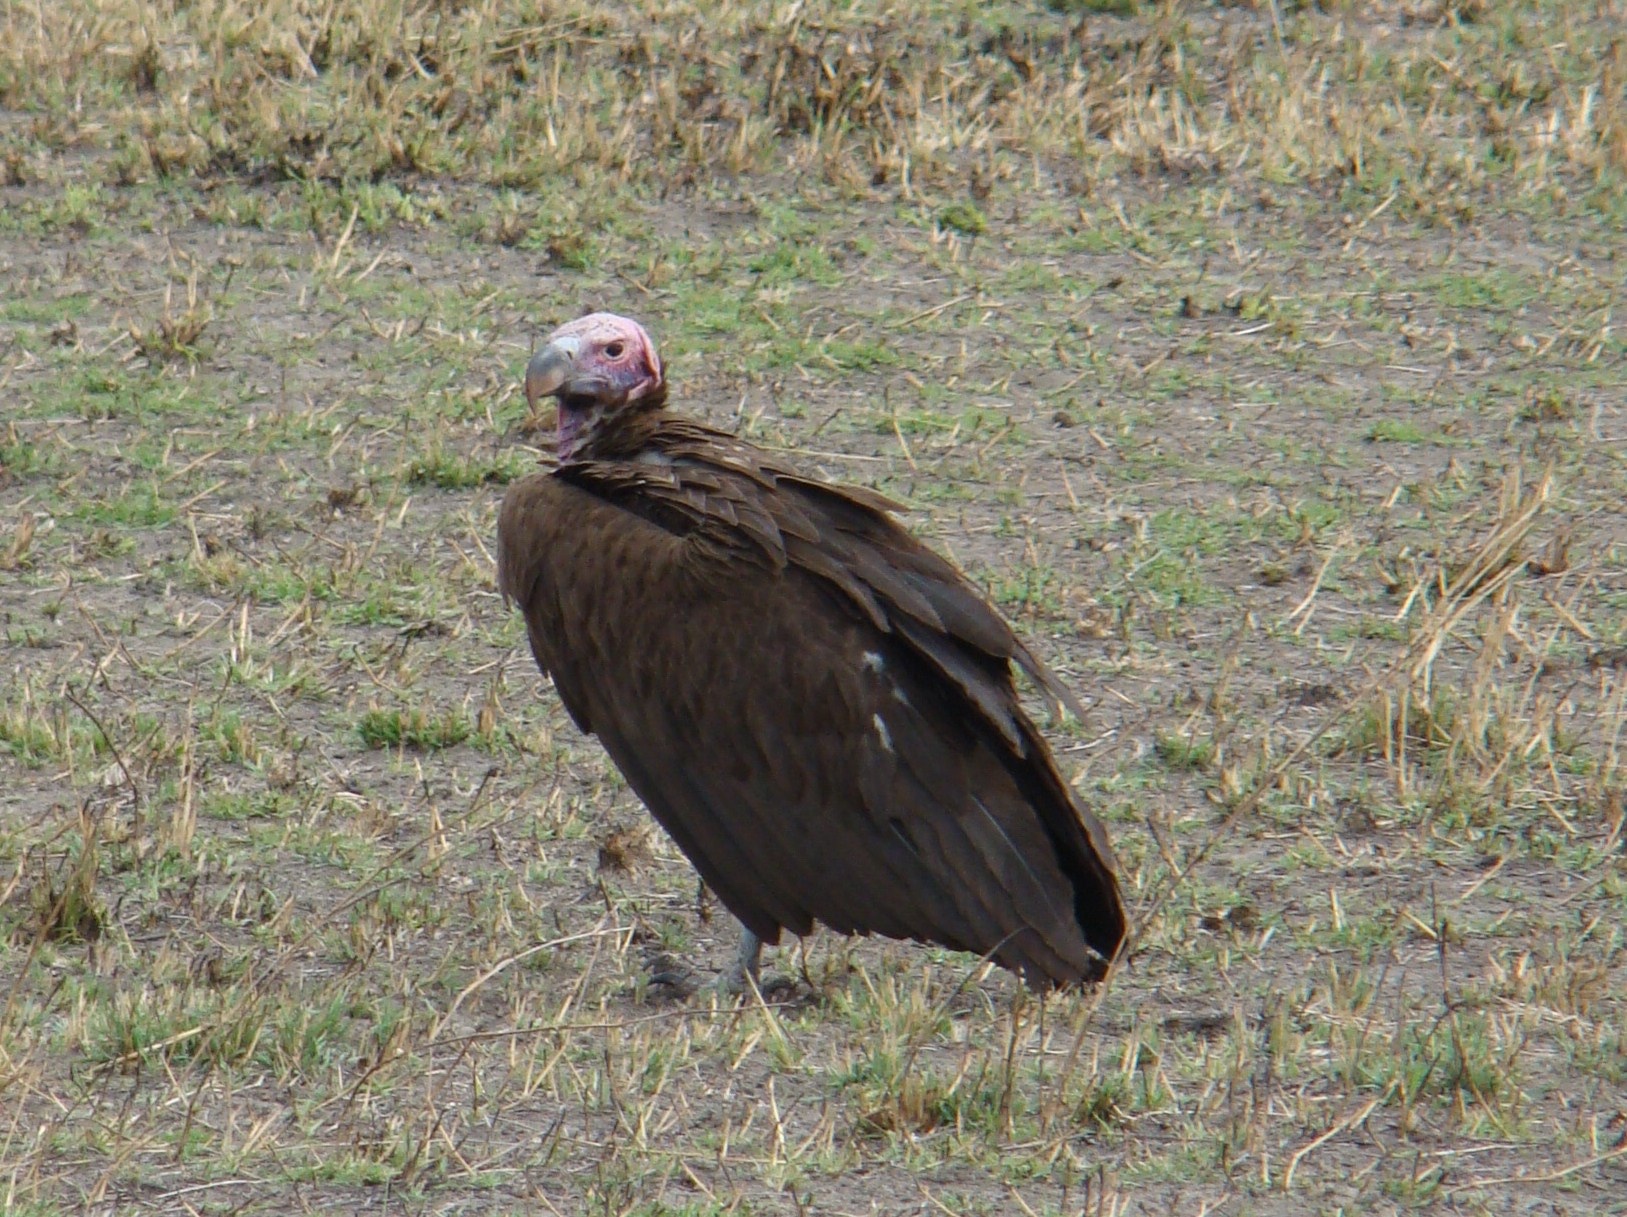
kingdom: Animalia
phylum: Chordata
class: Aves
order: Accipitriformes
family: Accipitridae
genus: Torgos
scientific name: Torgos tracheliotos
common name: Lappet-faced vulture
